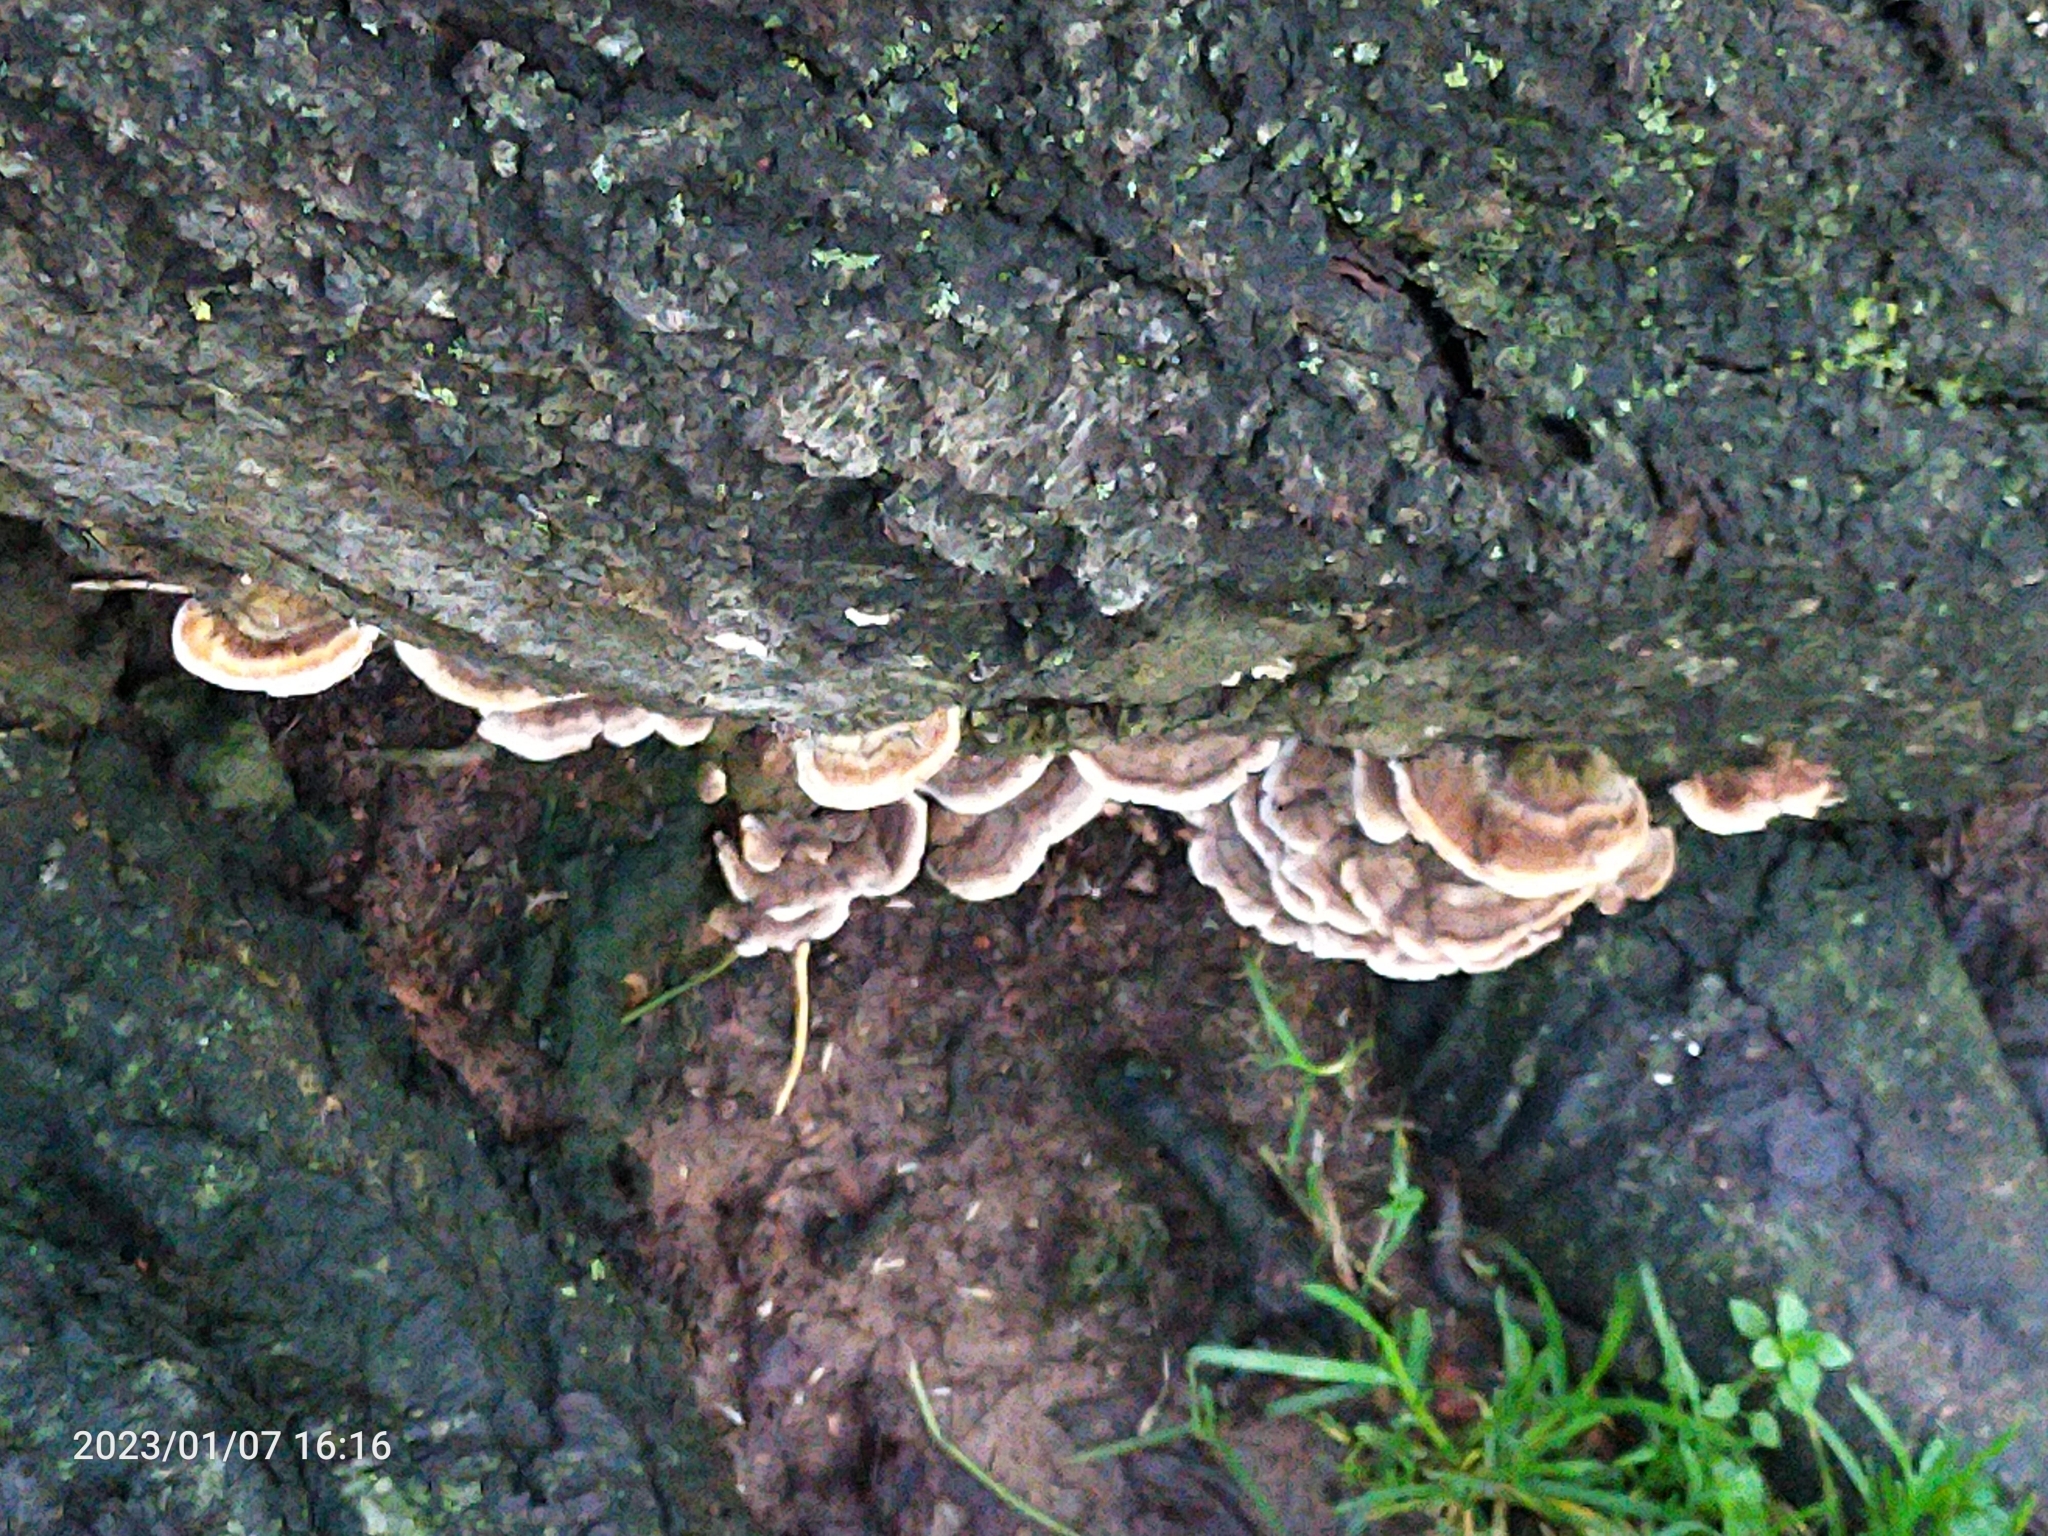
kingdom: Fungi
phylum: Basidiomycota
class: Agaricomycetes
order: Polyporales
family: Polyporaceae
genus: Trametes
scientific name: Trametes versicolor
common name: Turkeytail
